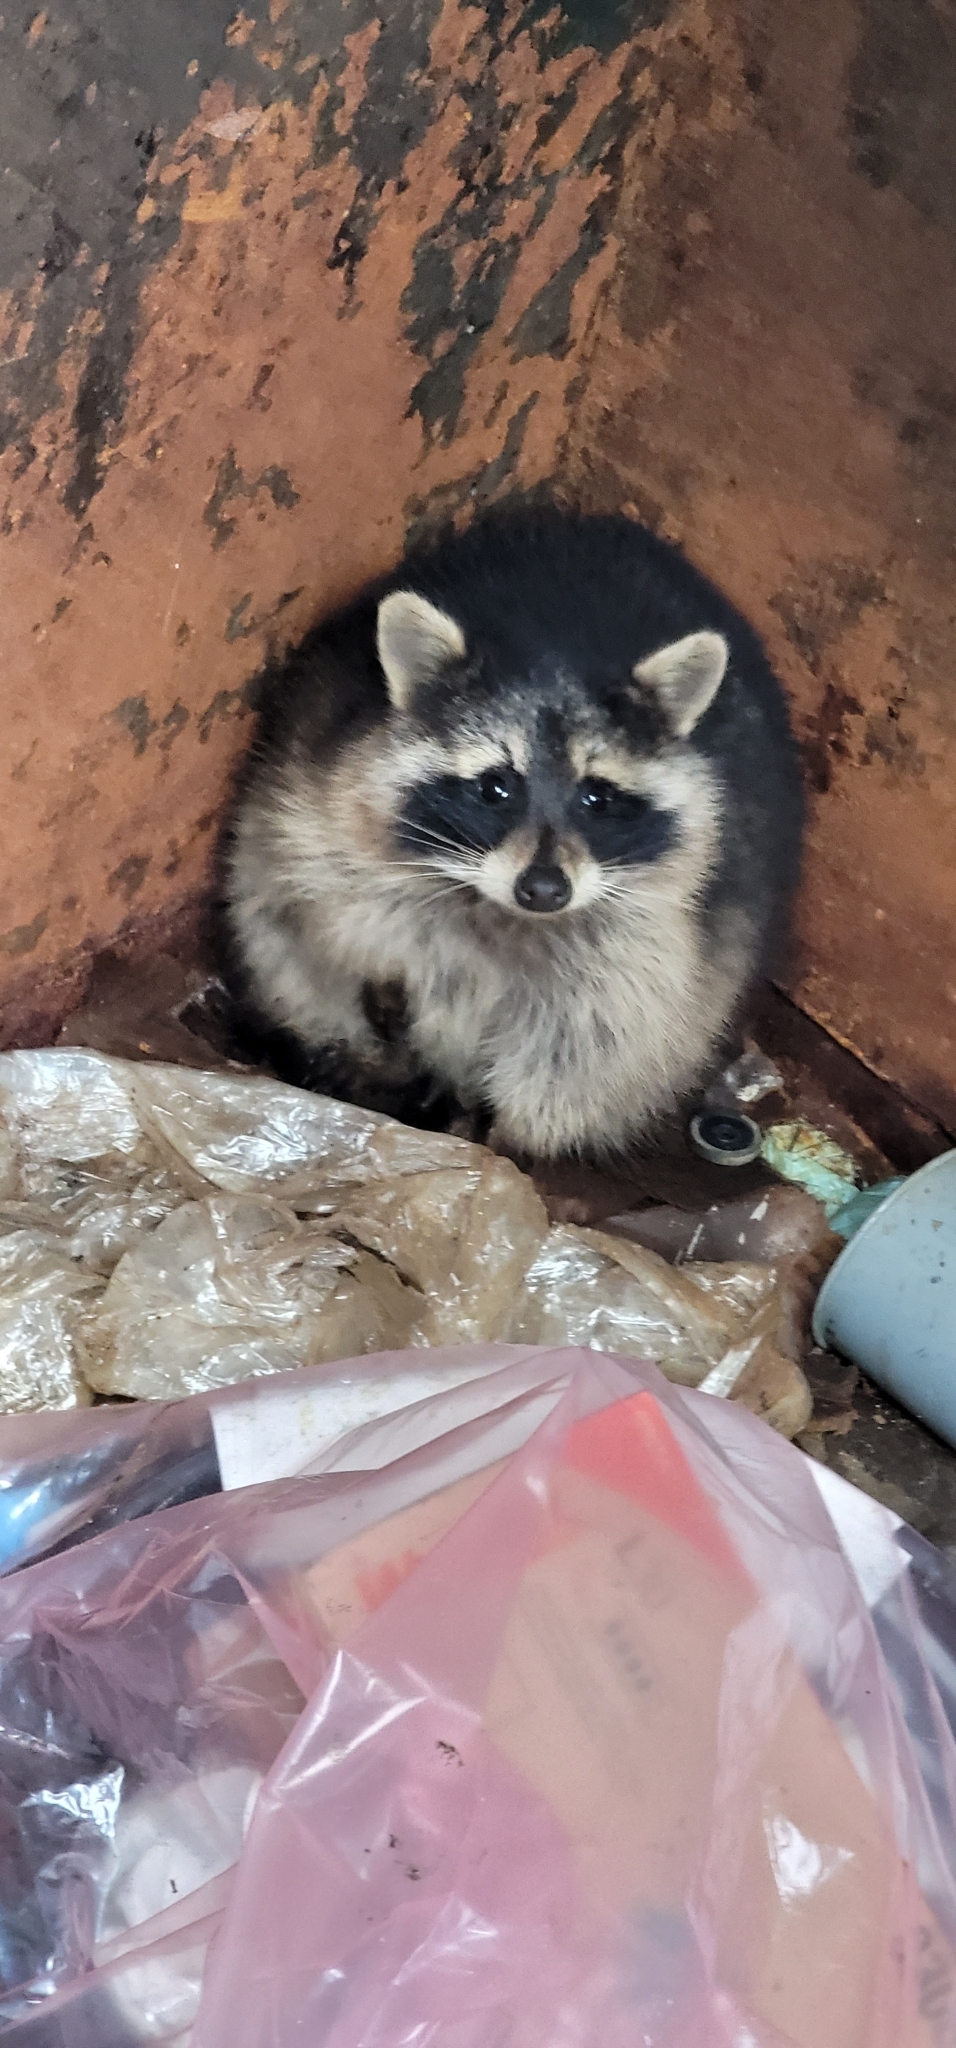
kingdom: Animalia
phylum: Chordata
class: Mammalia
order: Carnivora
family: Procyonidae
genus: Procyon
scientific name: Procyon lotor
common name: Raccoon
